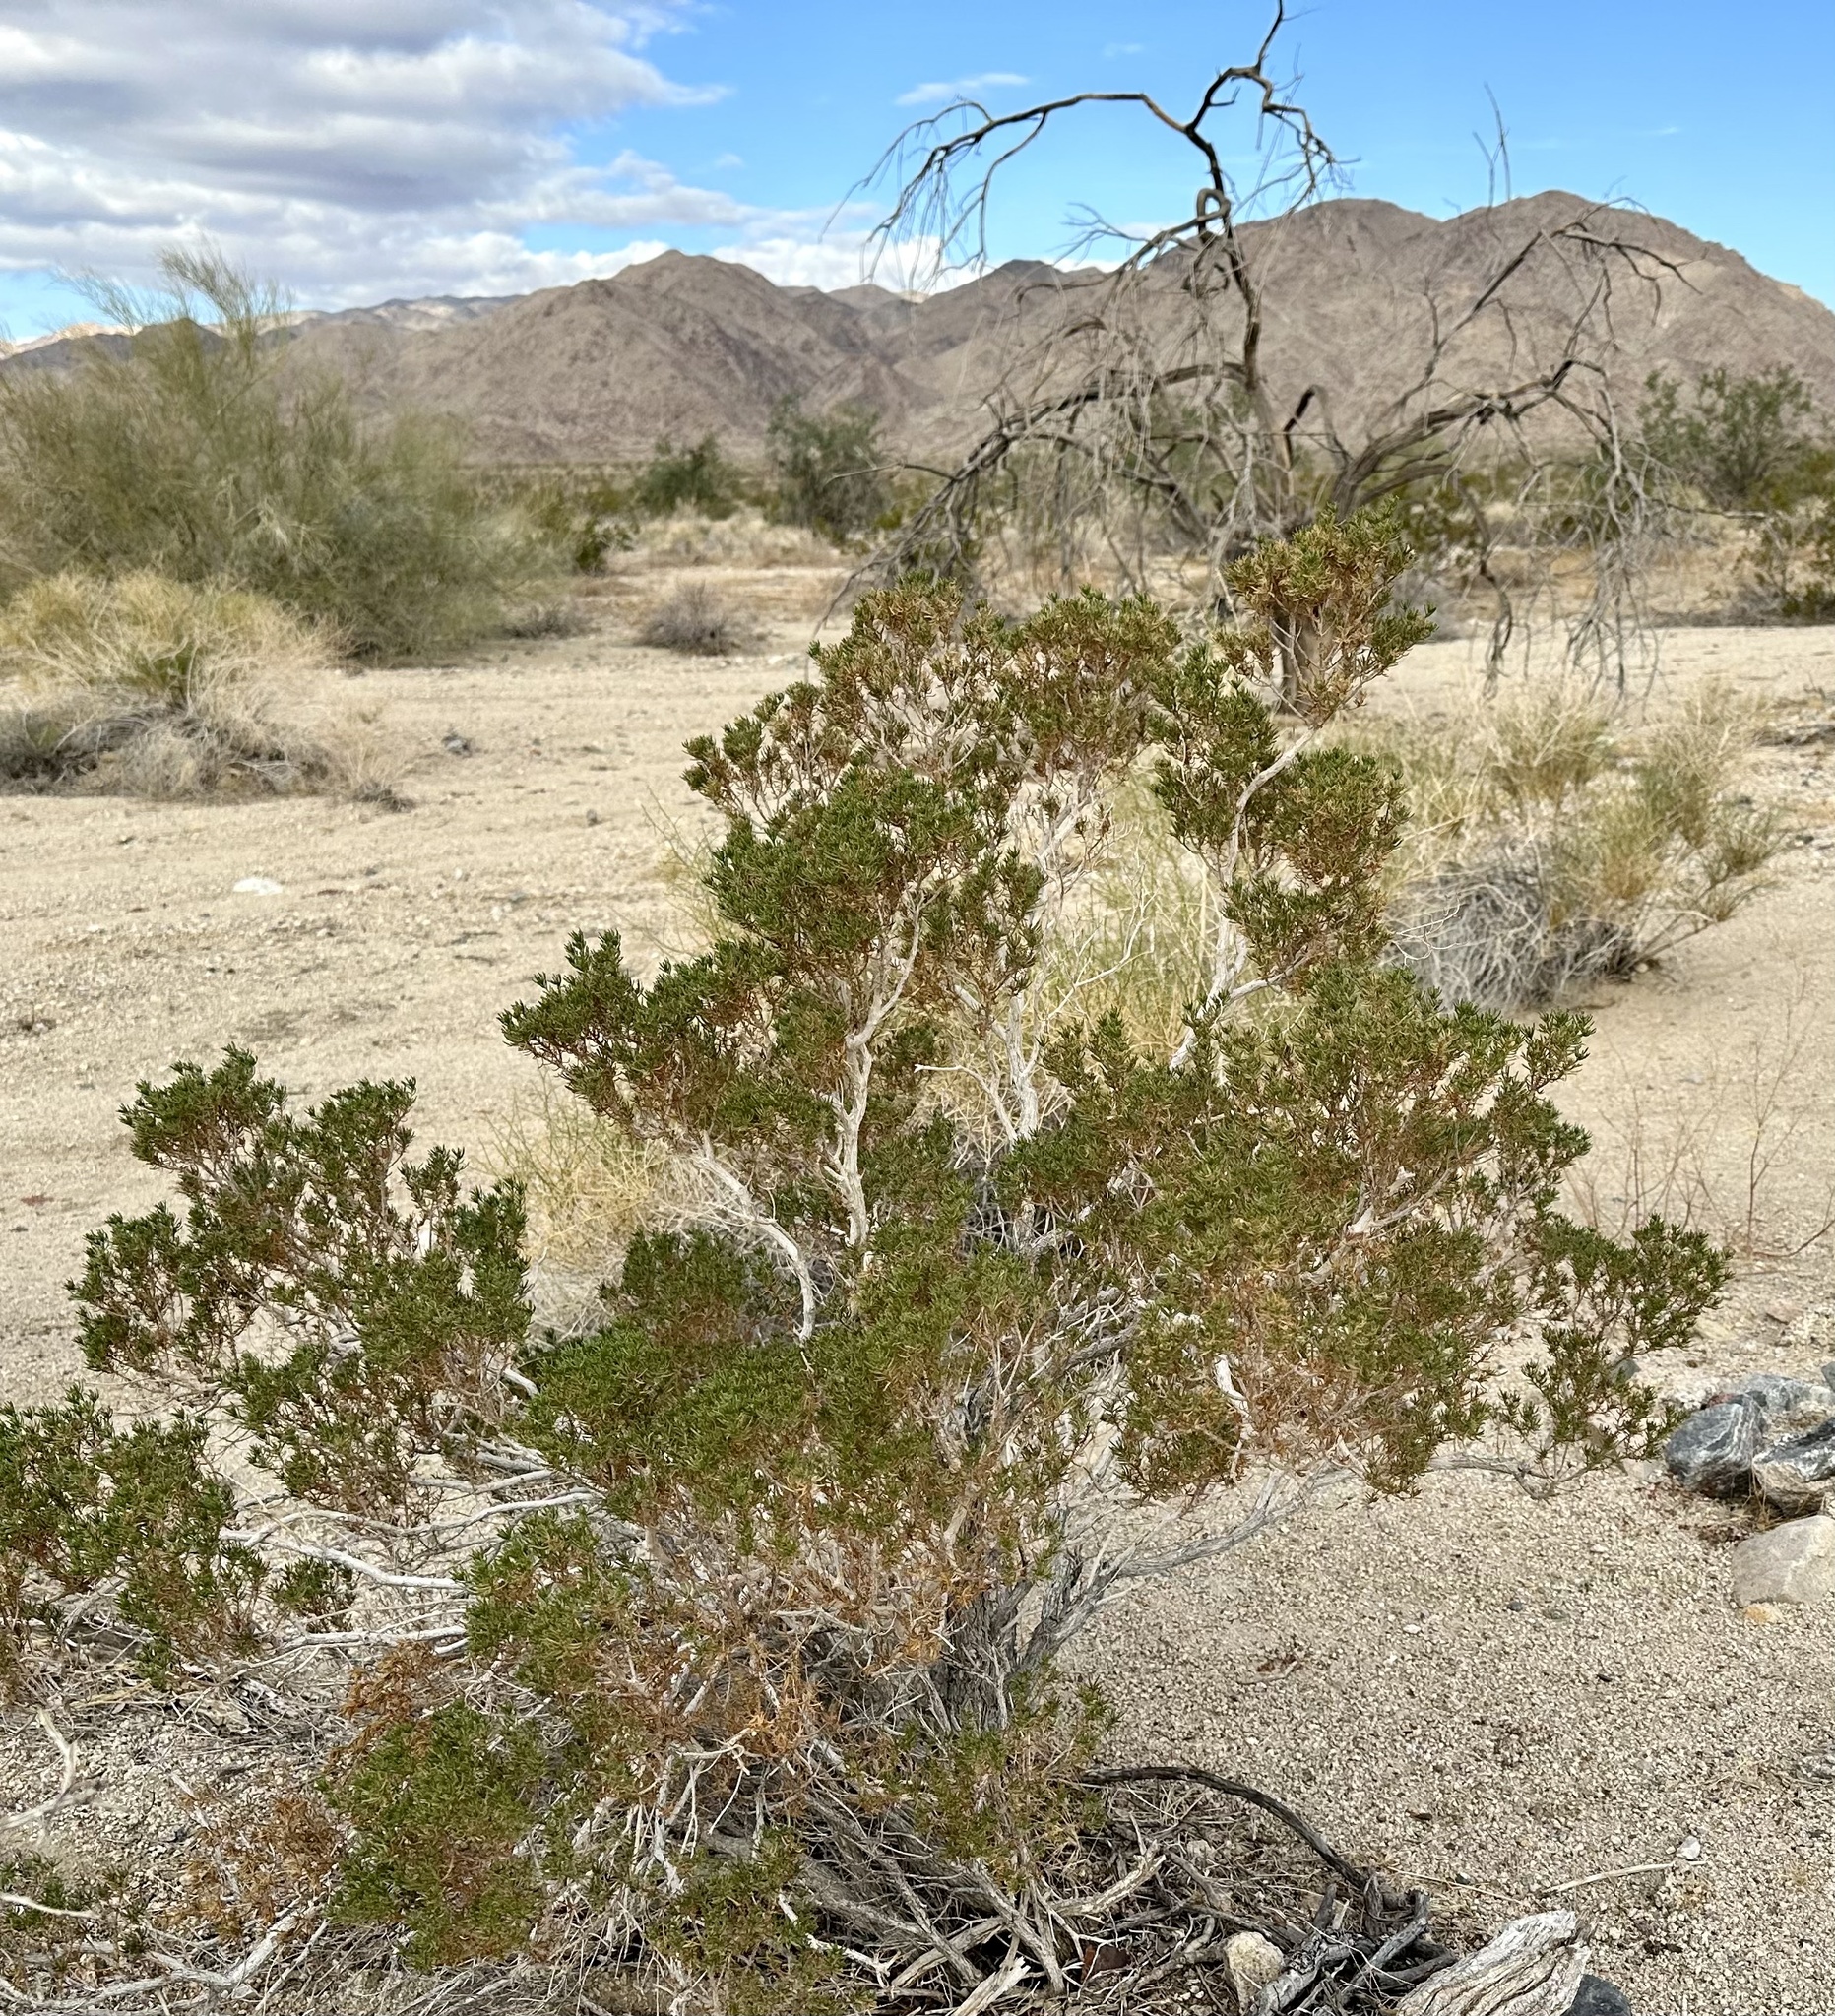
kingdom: Plantae
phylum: Tracheophyta
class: Magnoliopsida
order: Asterales
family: Asteraceae
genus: Peucephyllum
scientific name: Peucephyllum schottii
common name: Pygmy-cedar
